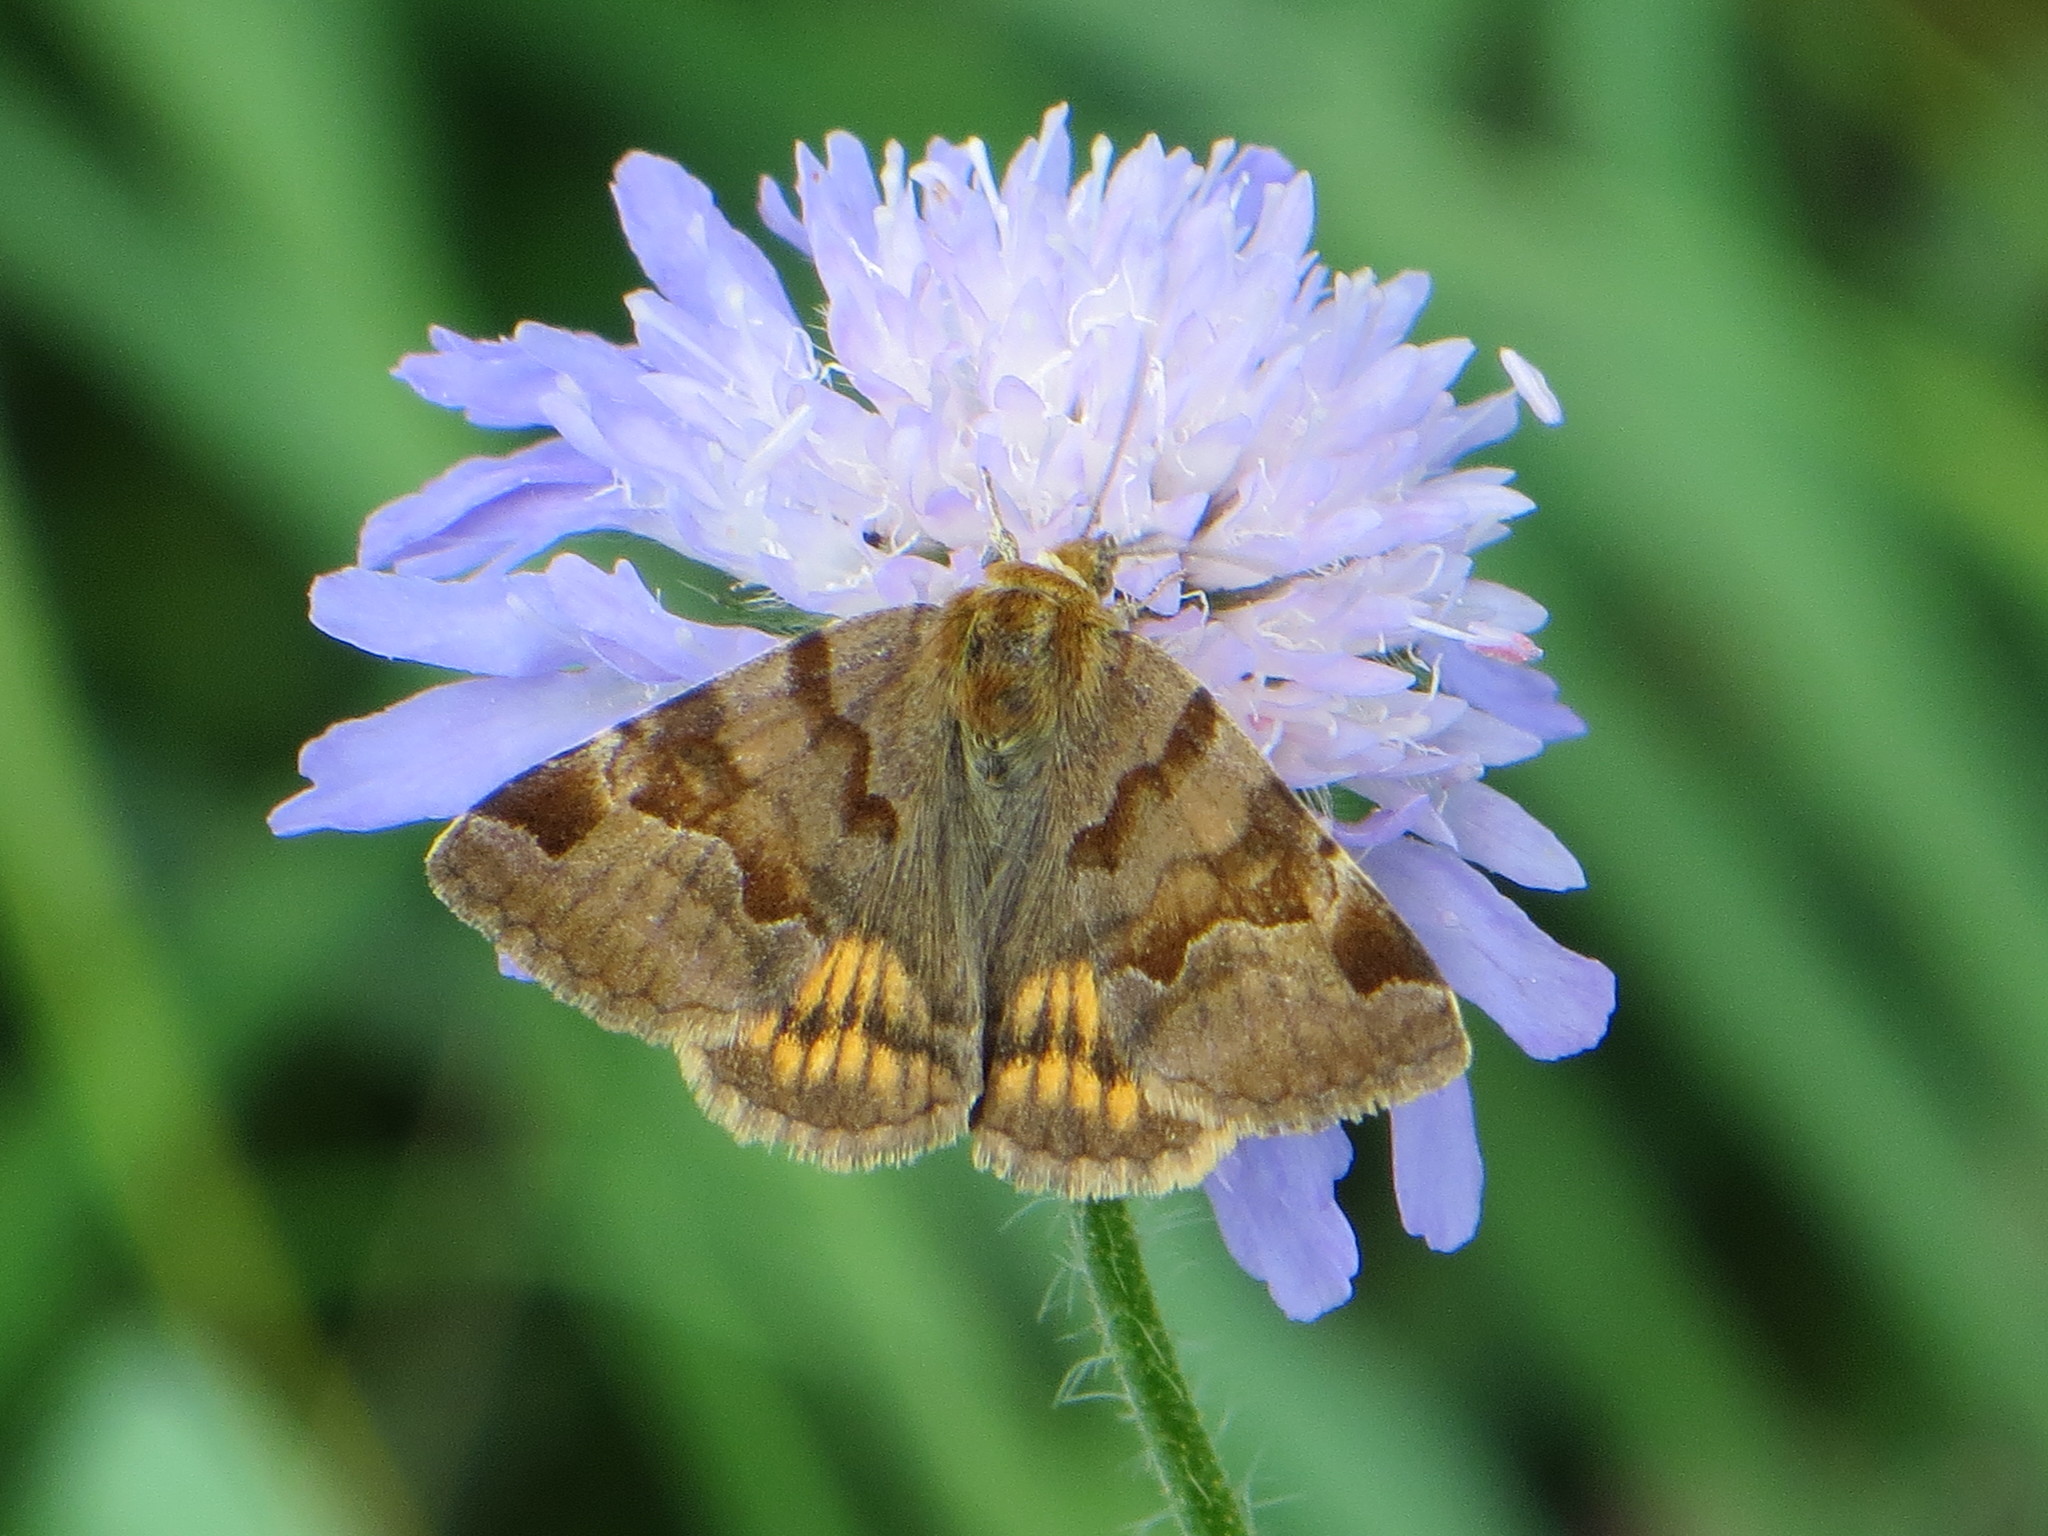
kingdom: Animalia
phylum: Arthropoda
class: Insecta
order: Lepidoptera
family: Erebidae
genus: Euclidia
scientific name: Euclidia glyphica
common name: Burnet companion
